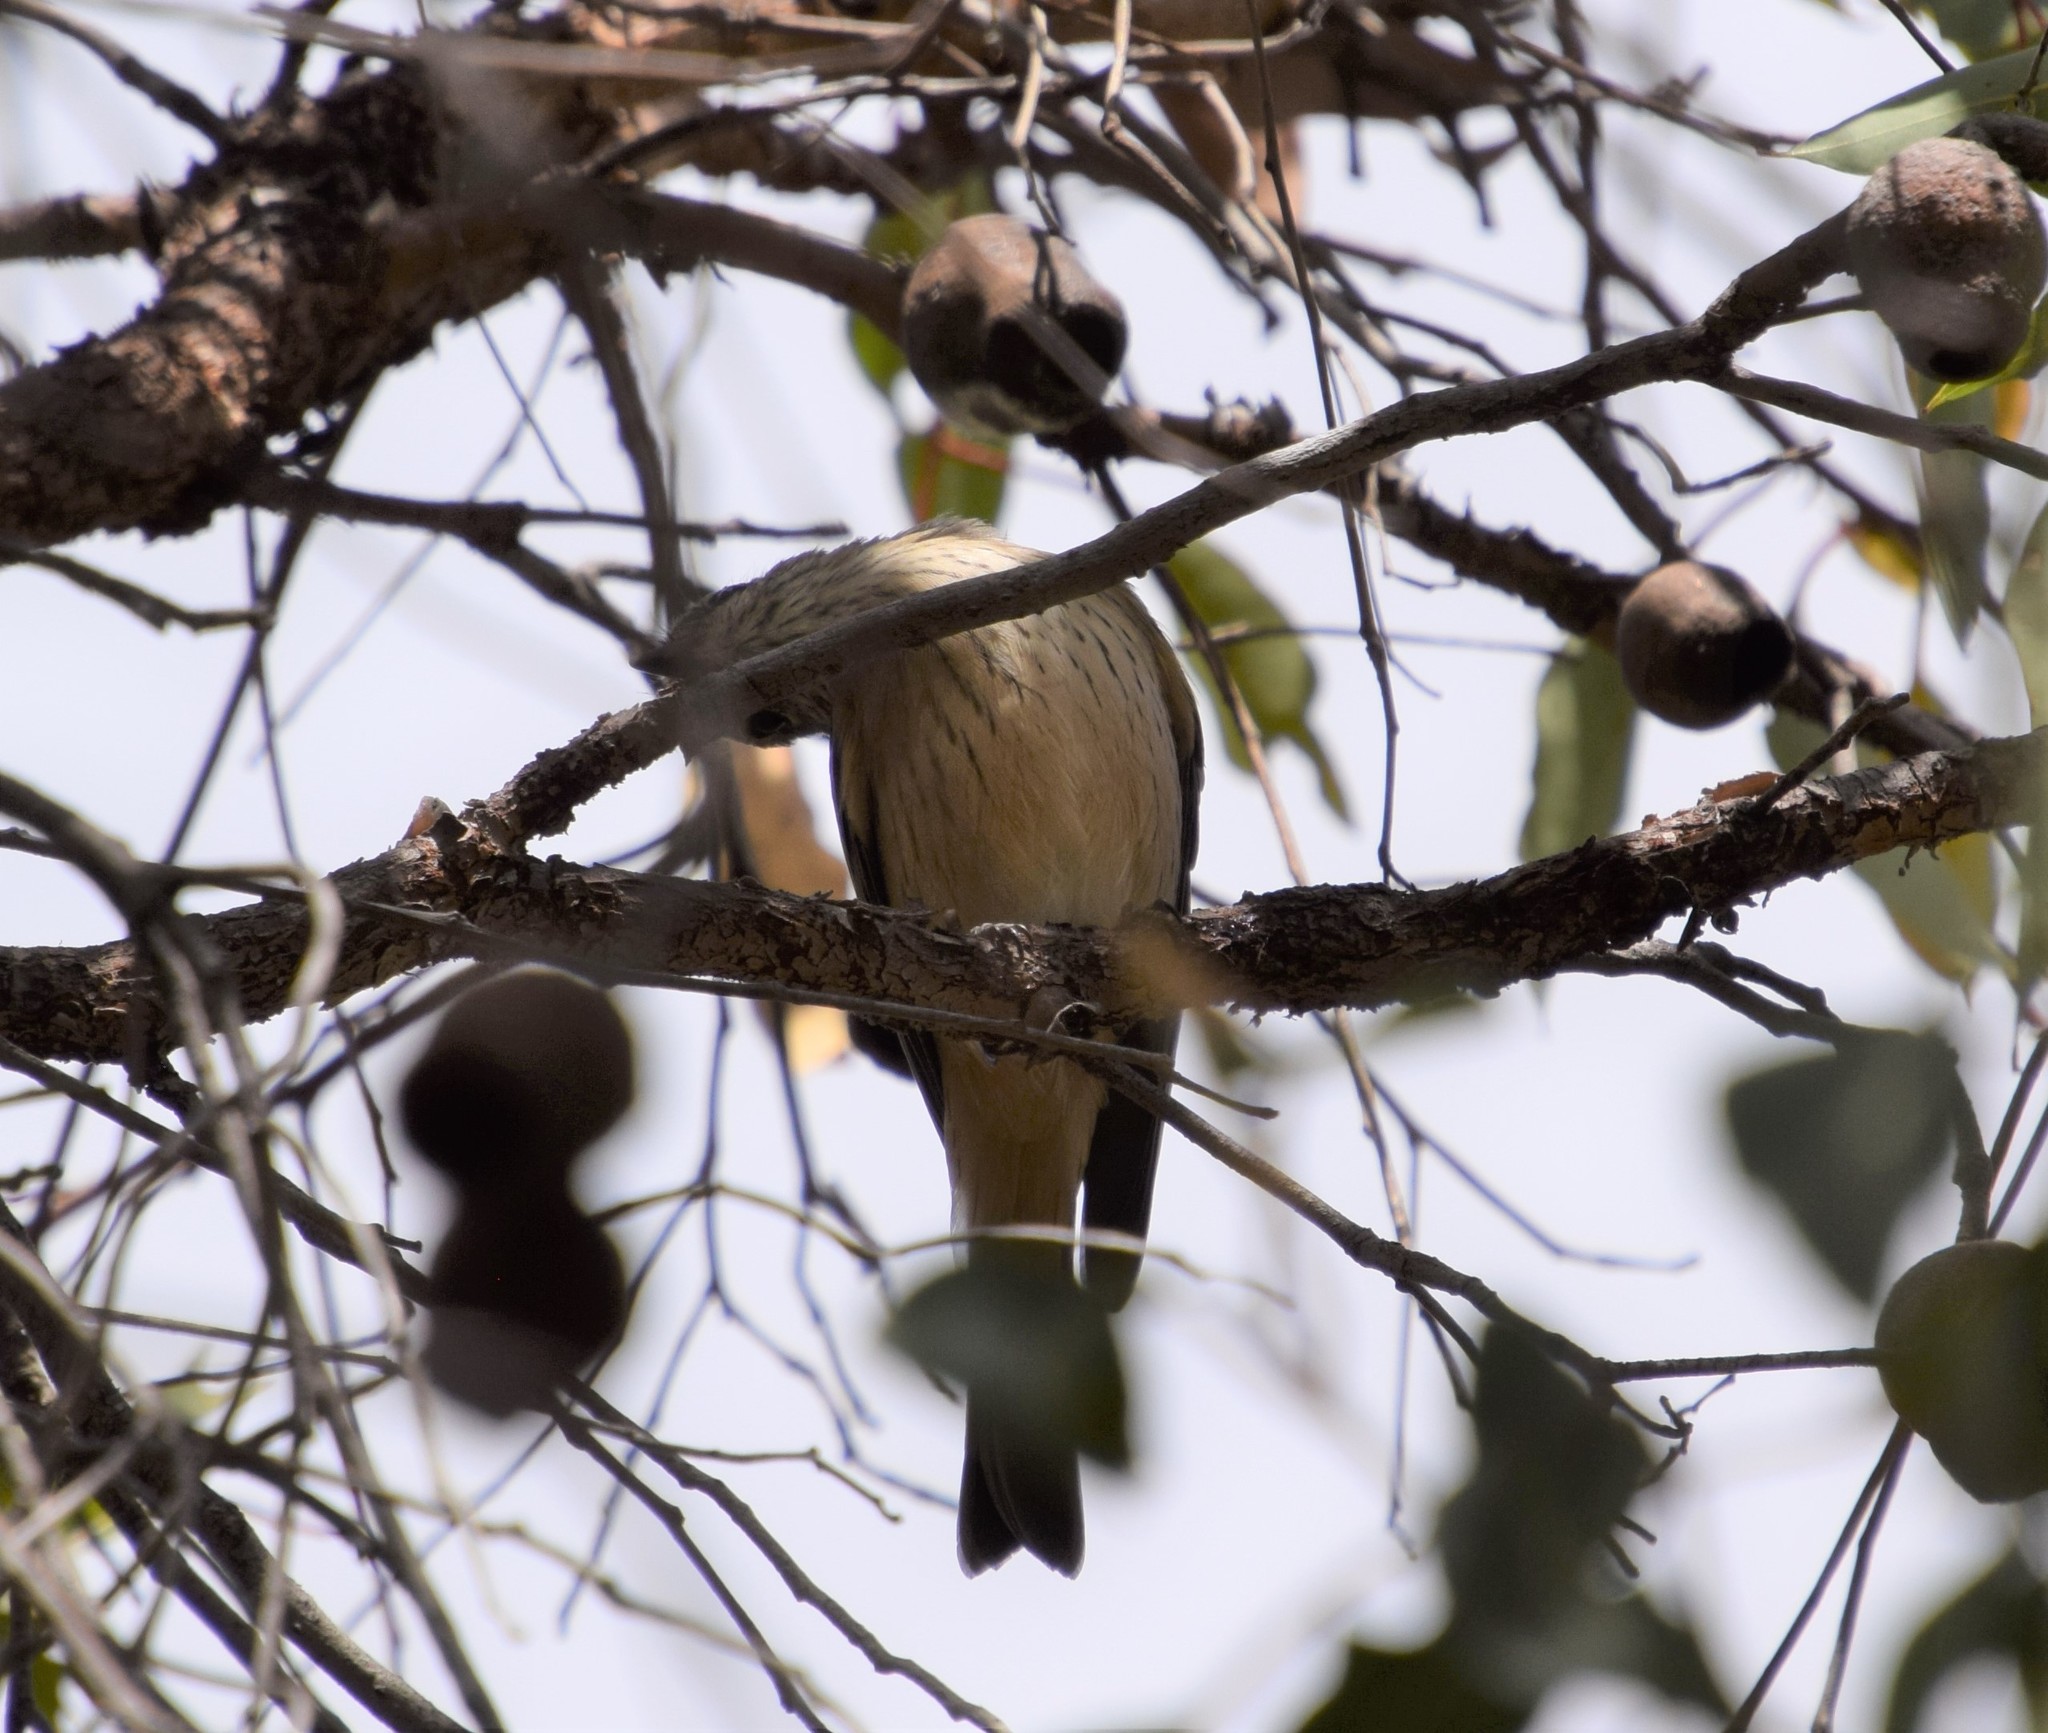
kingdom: Animalia
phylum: Chordata
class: Aves
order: Passeriformes
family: Pachycephalidae
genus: Pachycephala
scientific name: Pachycephala rufiventris
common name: Rufous whistler
